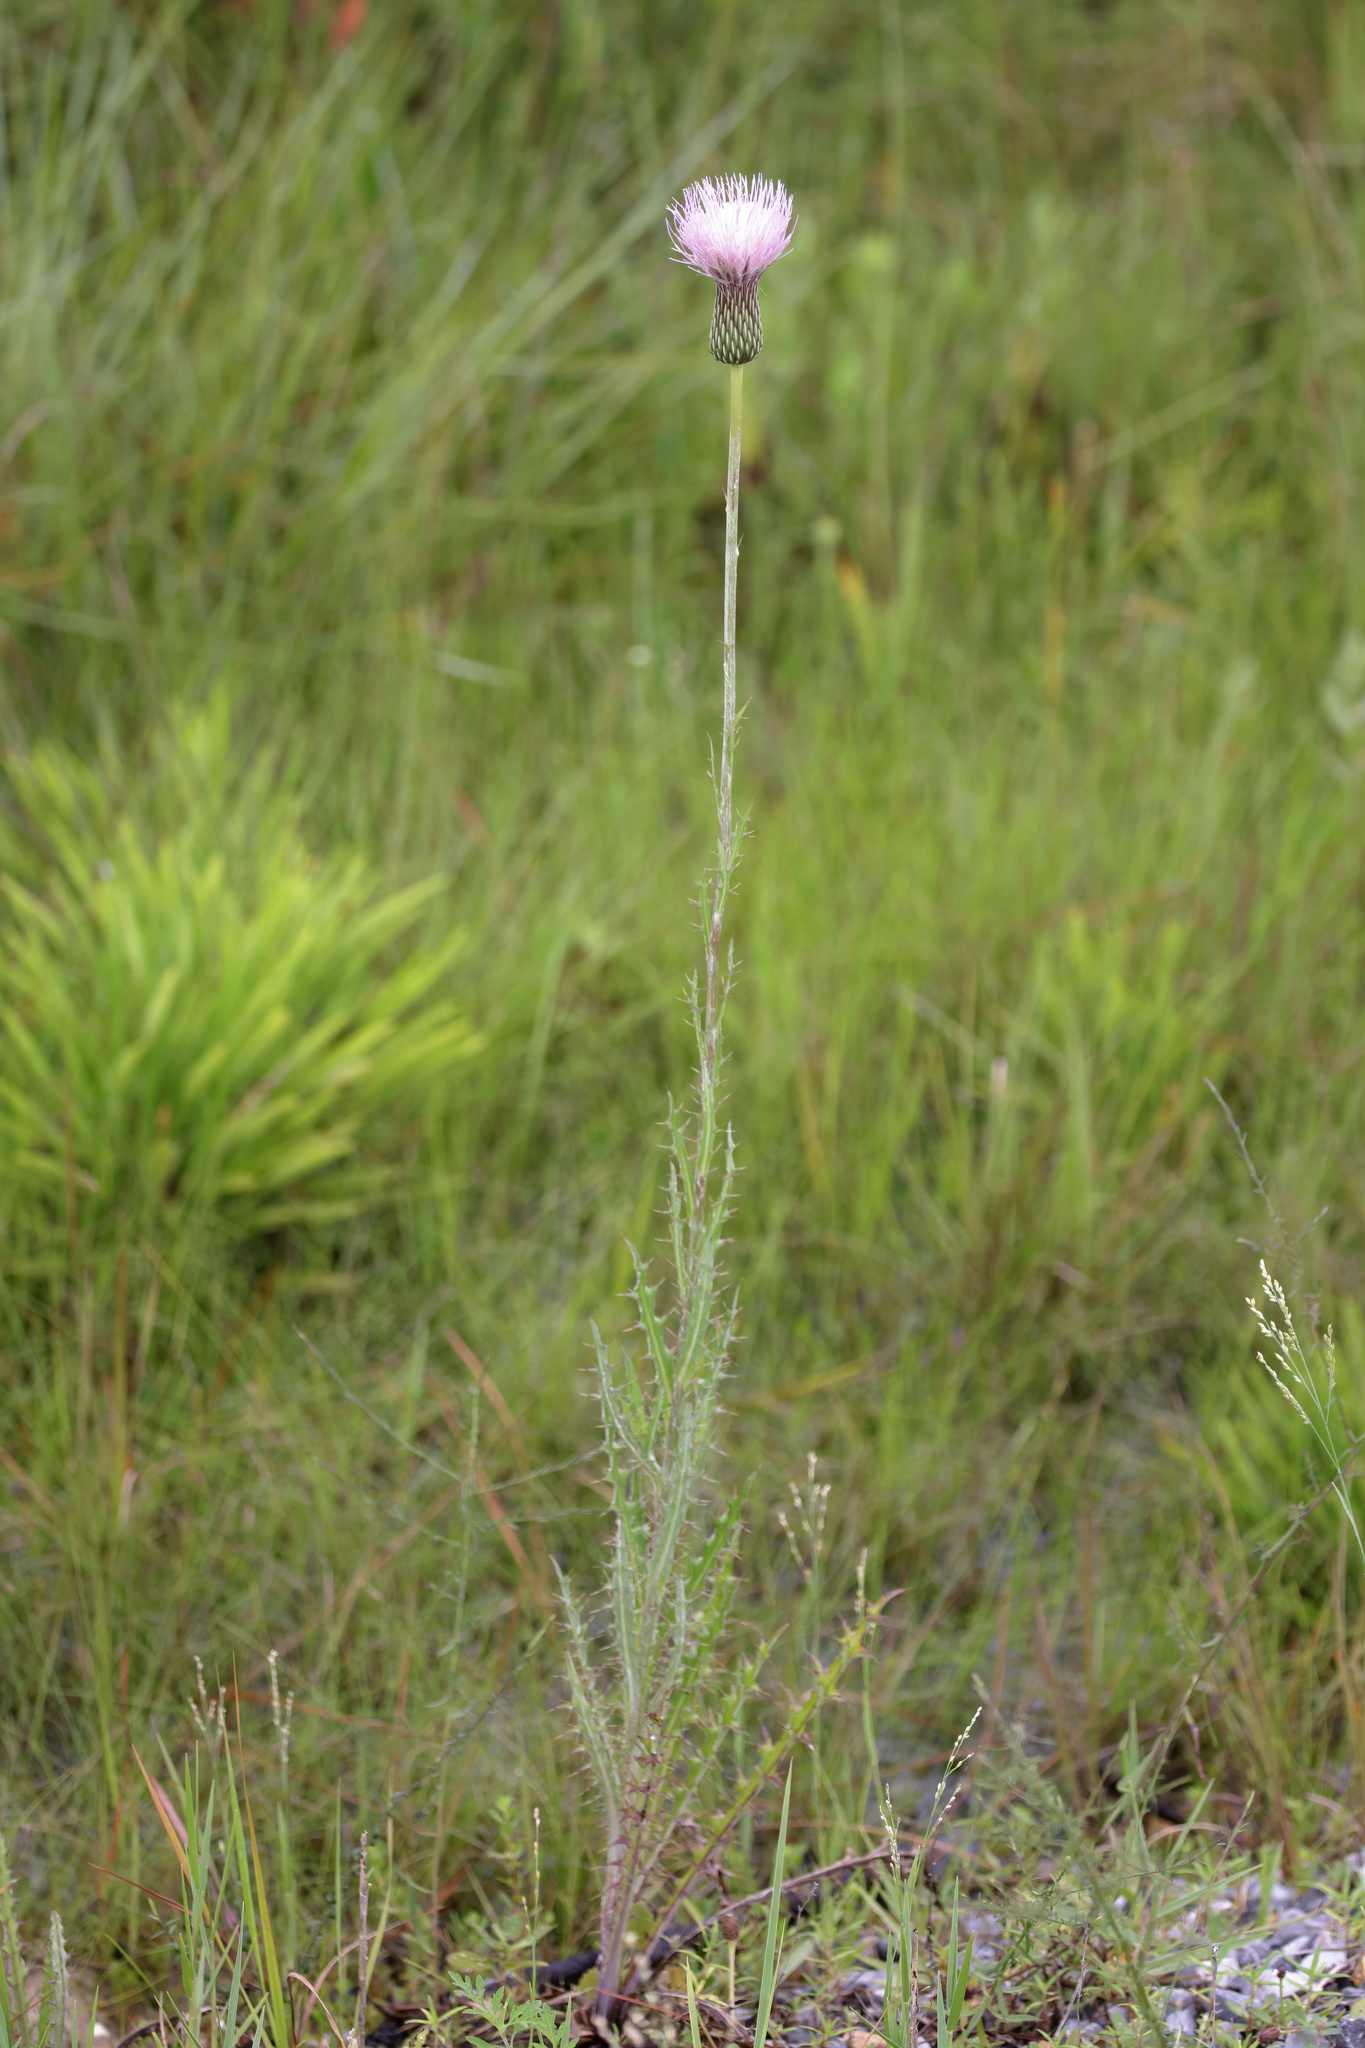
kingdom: Plantae
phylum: Tracheophyta
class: Magnoliopsida
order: Asterales
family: Asteraceae
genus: Cirsium
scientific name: Cirsium lecontei
